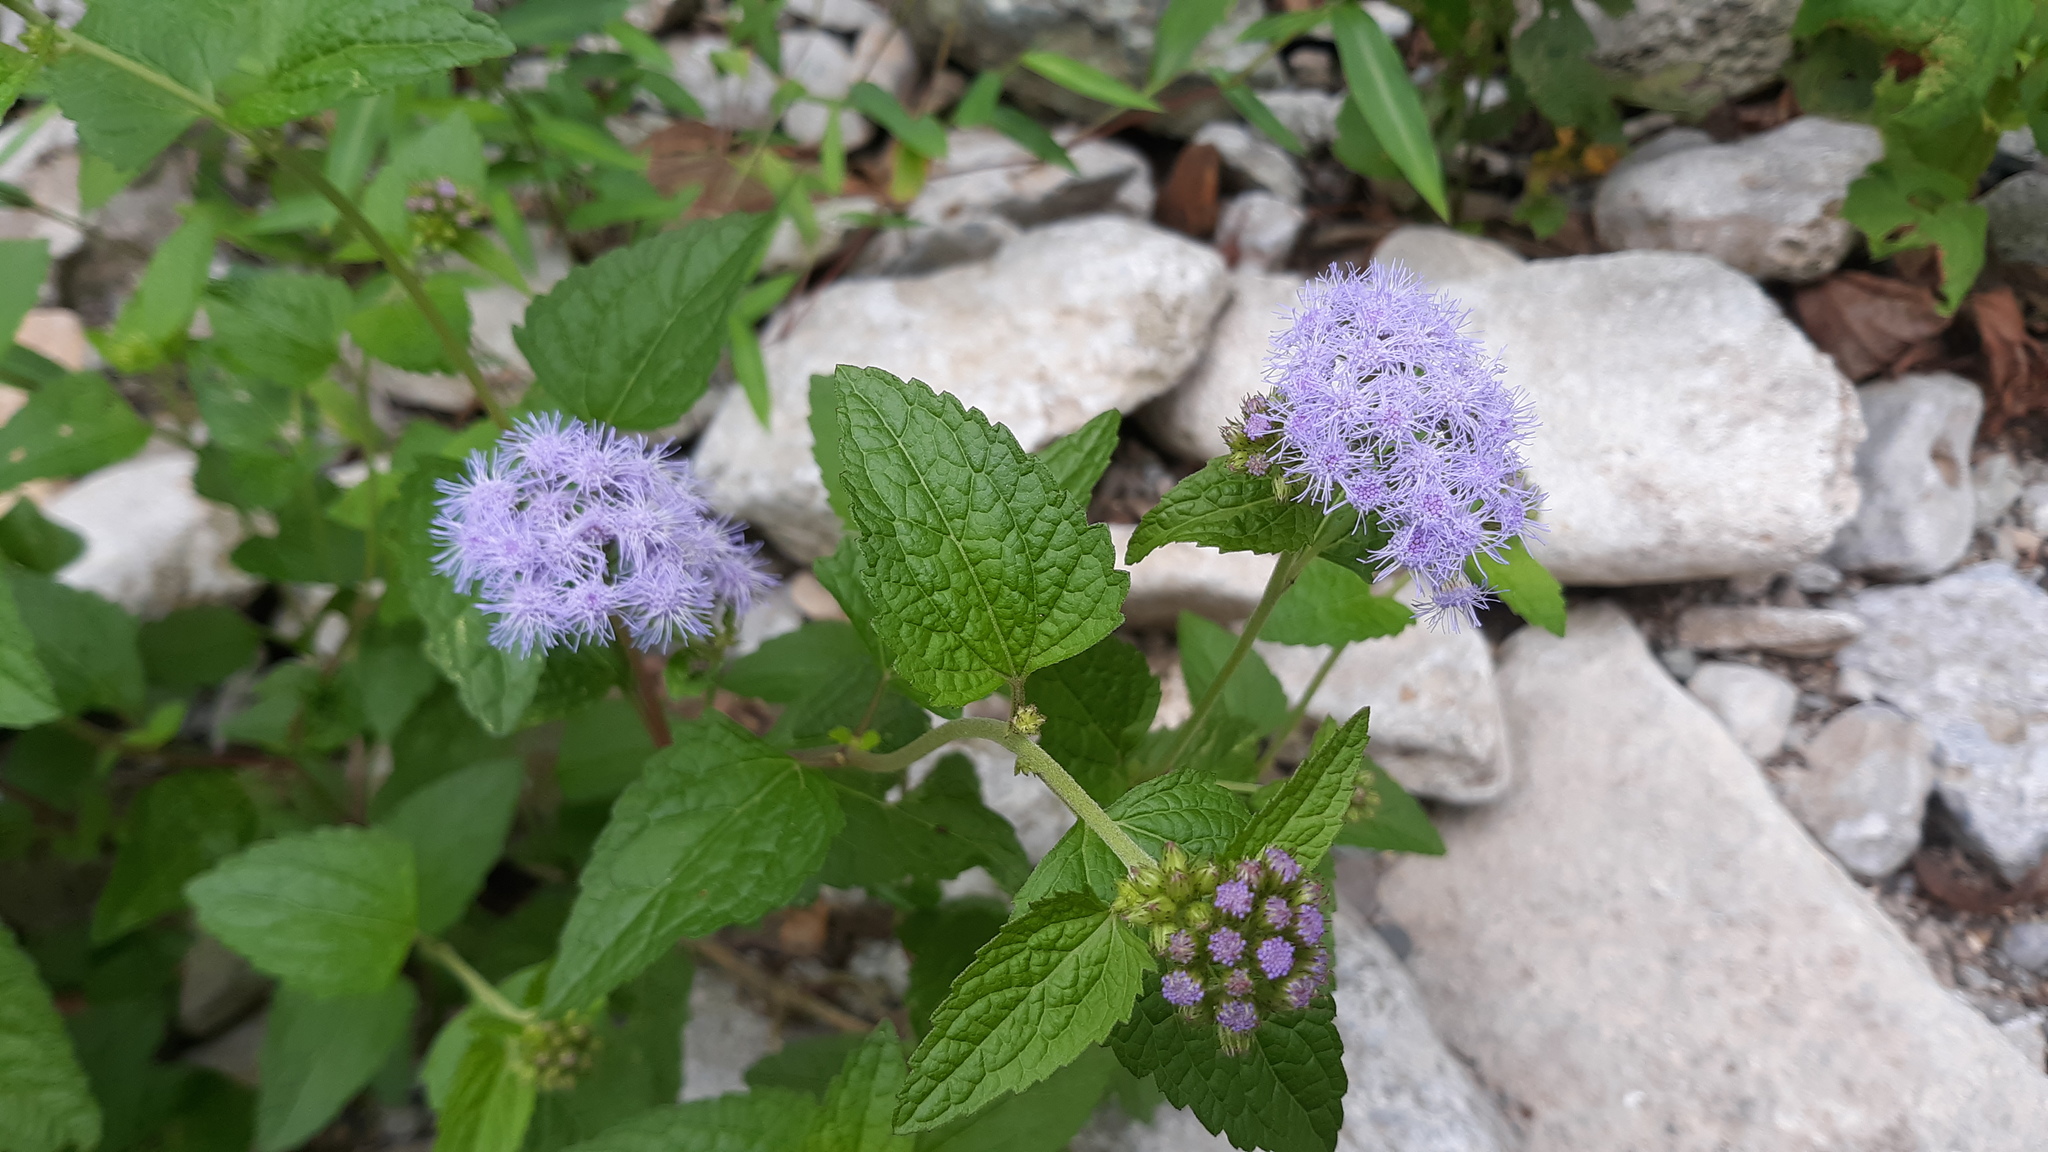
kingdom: Plantae
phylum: Tracheophyta
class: Magnoliopsida
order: Asterales
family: Asteraceae
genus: Conoclinium
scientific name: Conoclinium coelestinum
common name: Blue mistflower
